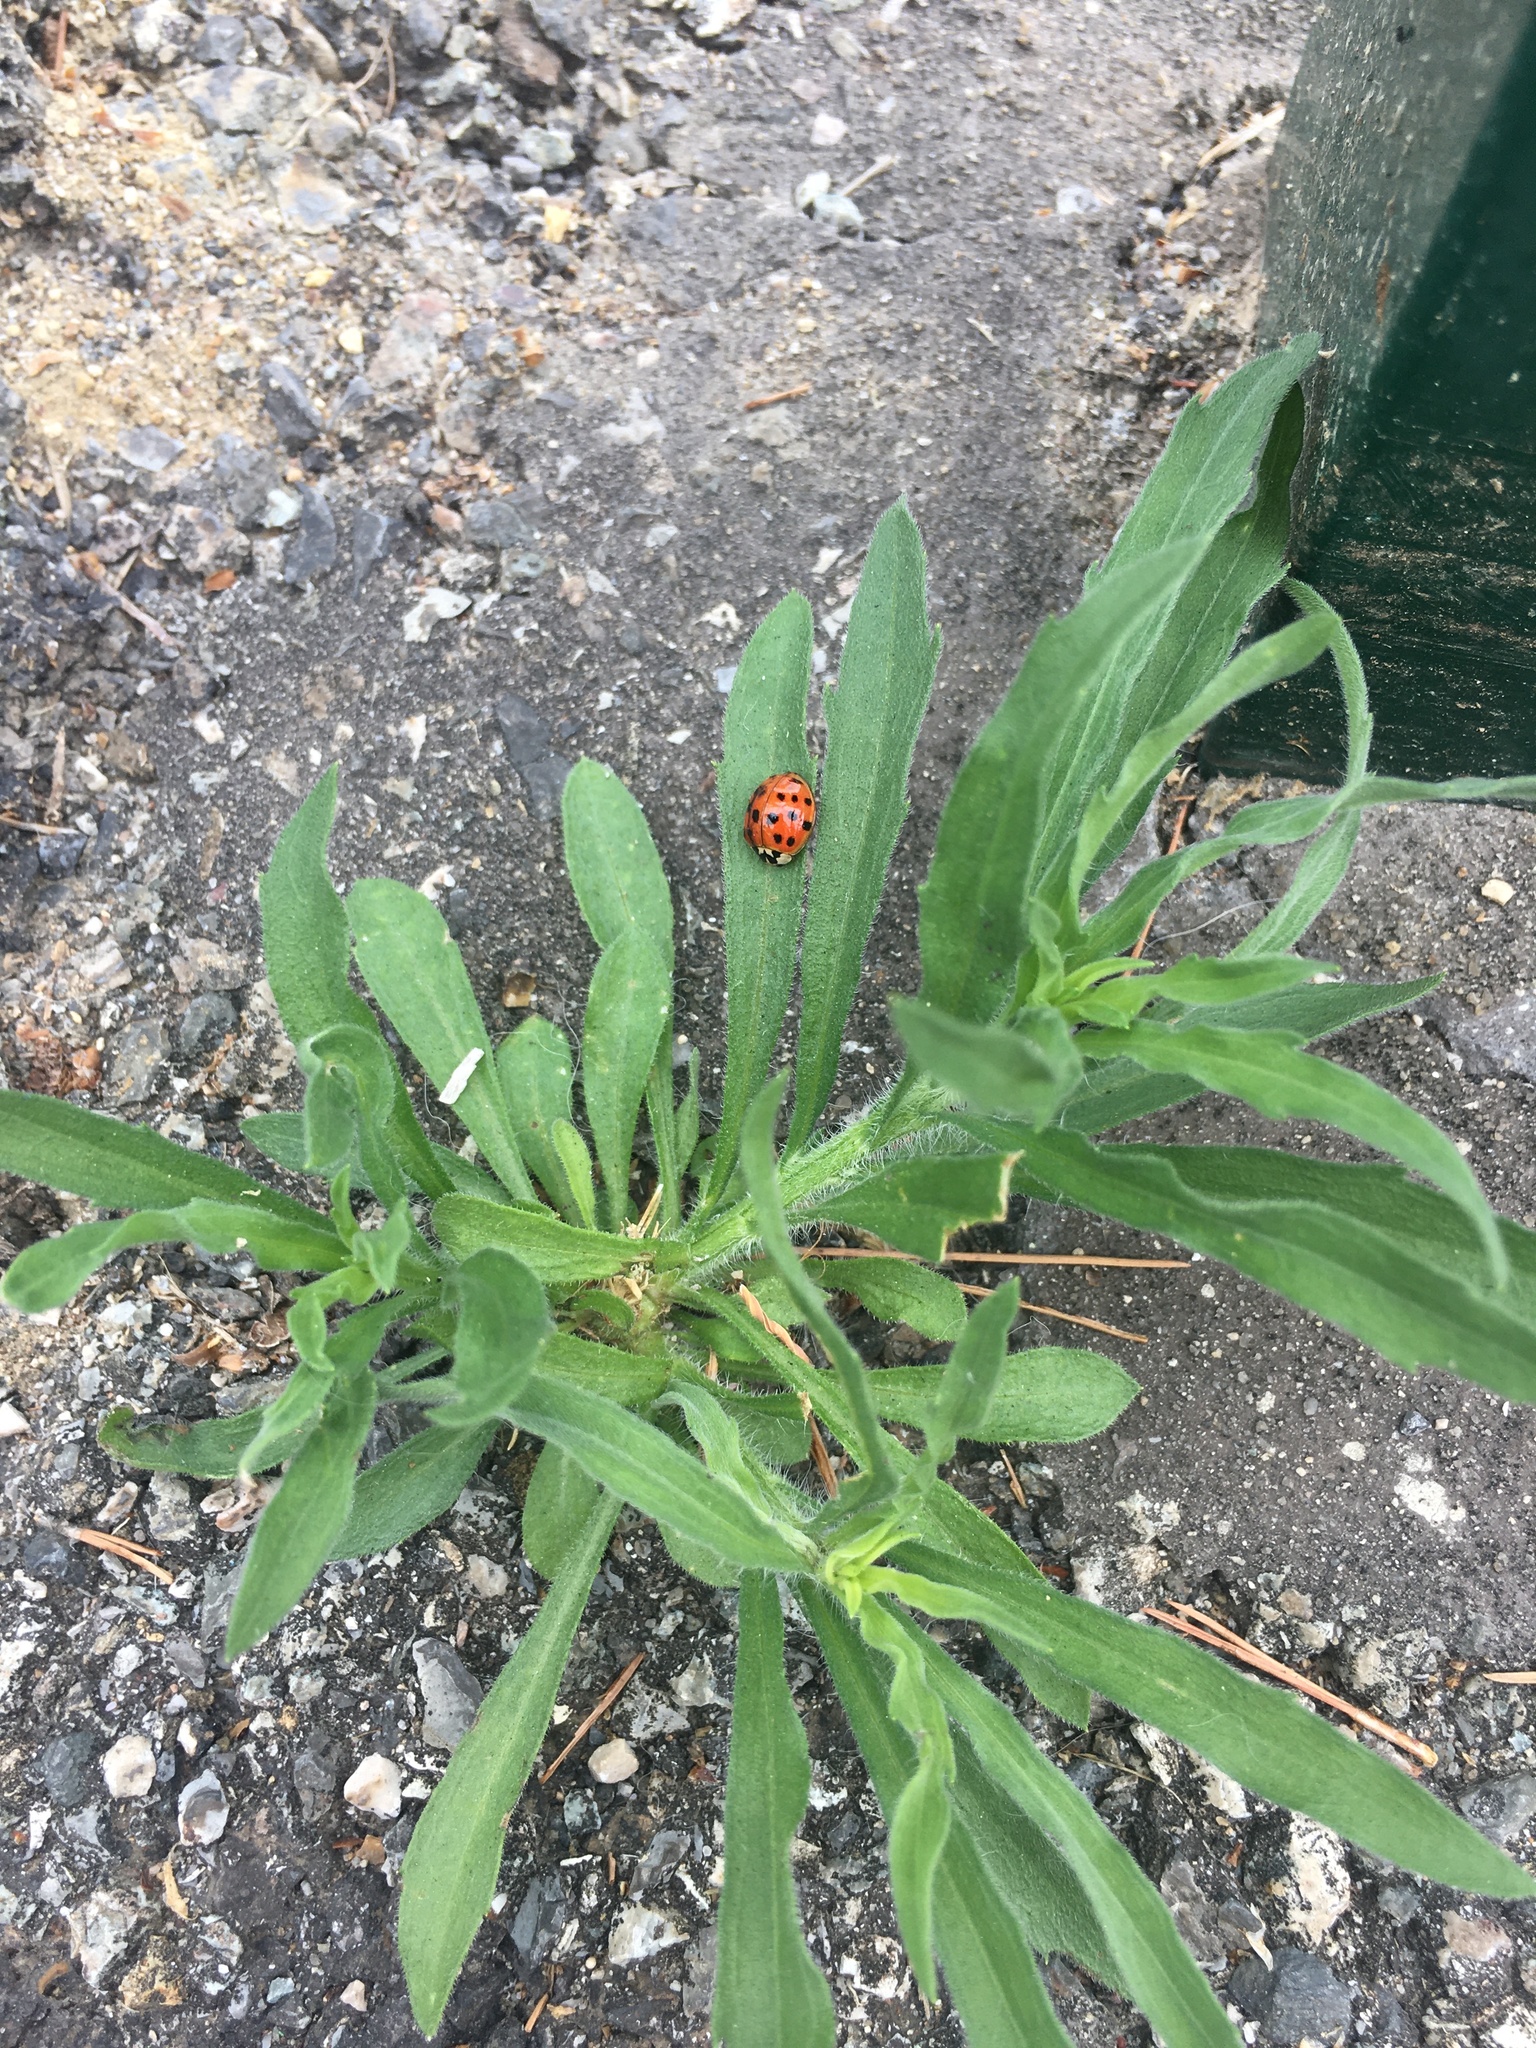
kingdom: Animalia
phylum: Arthropoda
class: Insecta
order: Coleoptera
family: Coccinellidae
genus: Harmonia
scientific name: Harmonia axyridis
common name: Harlequin ladybird
